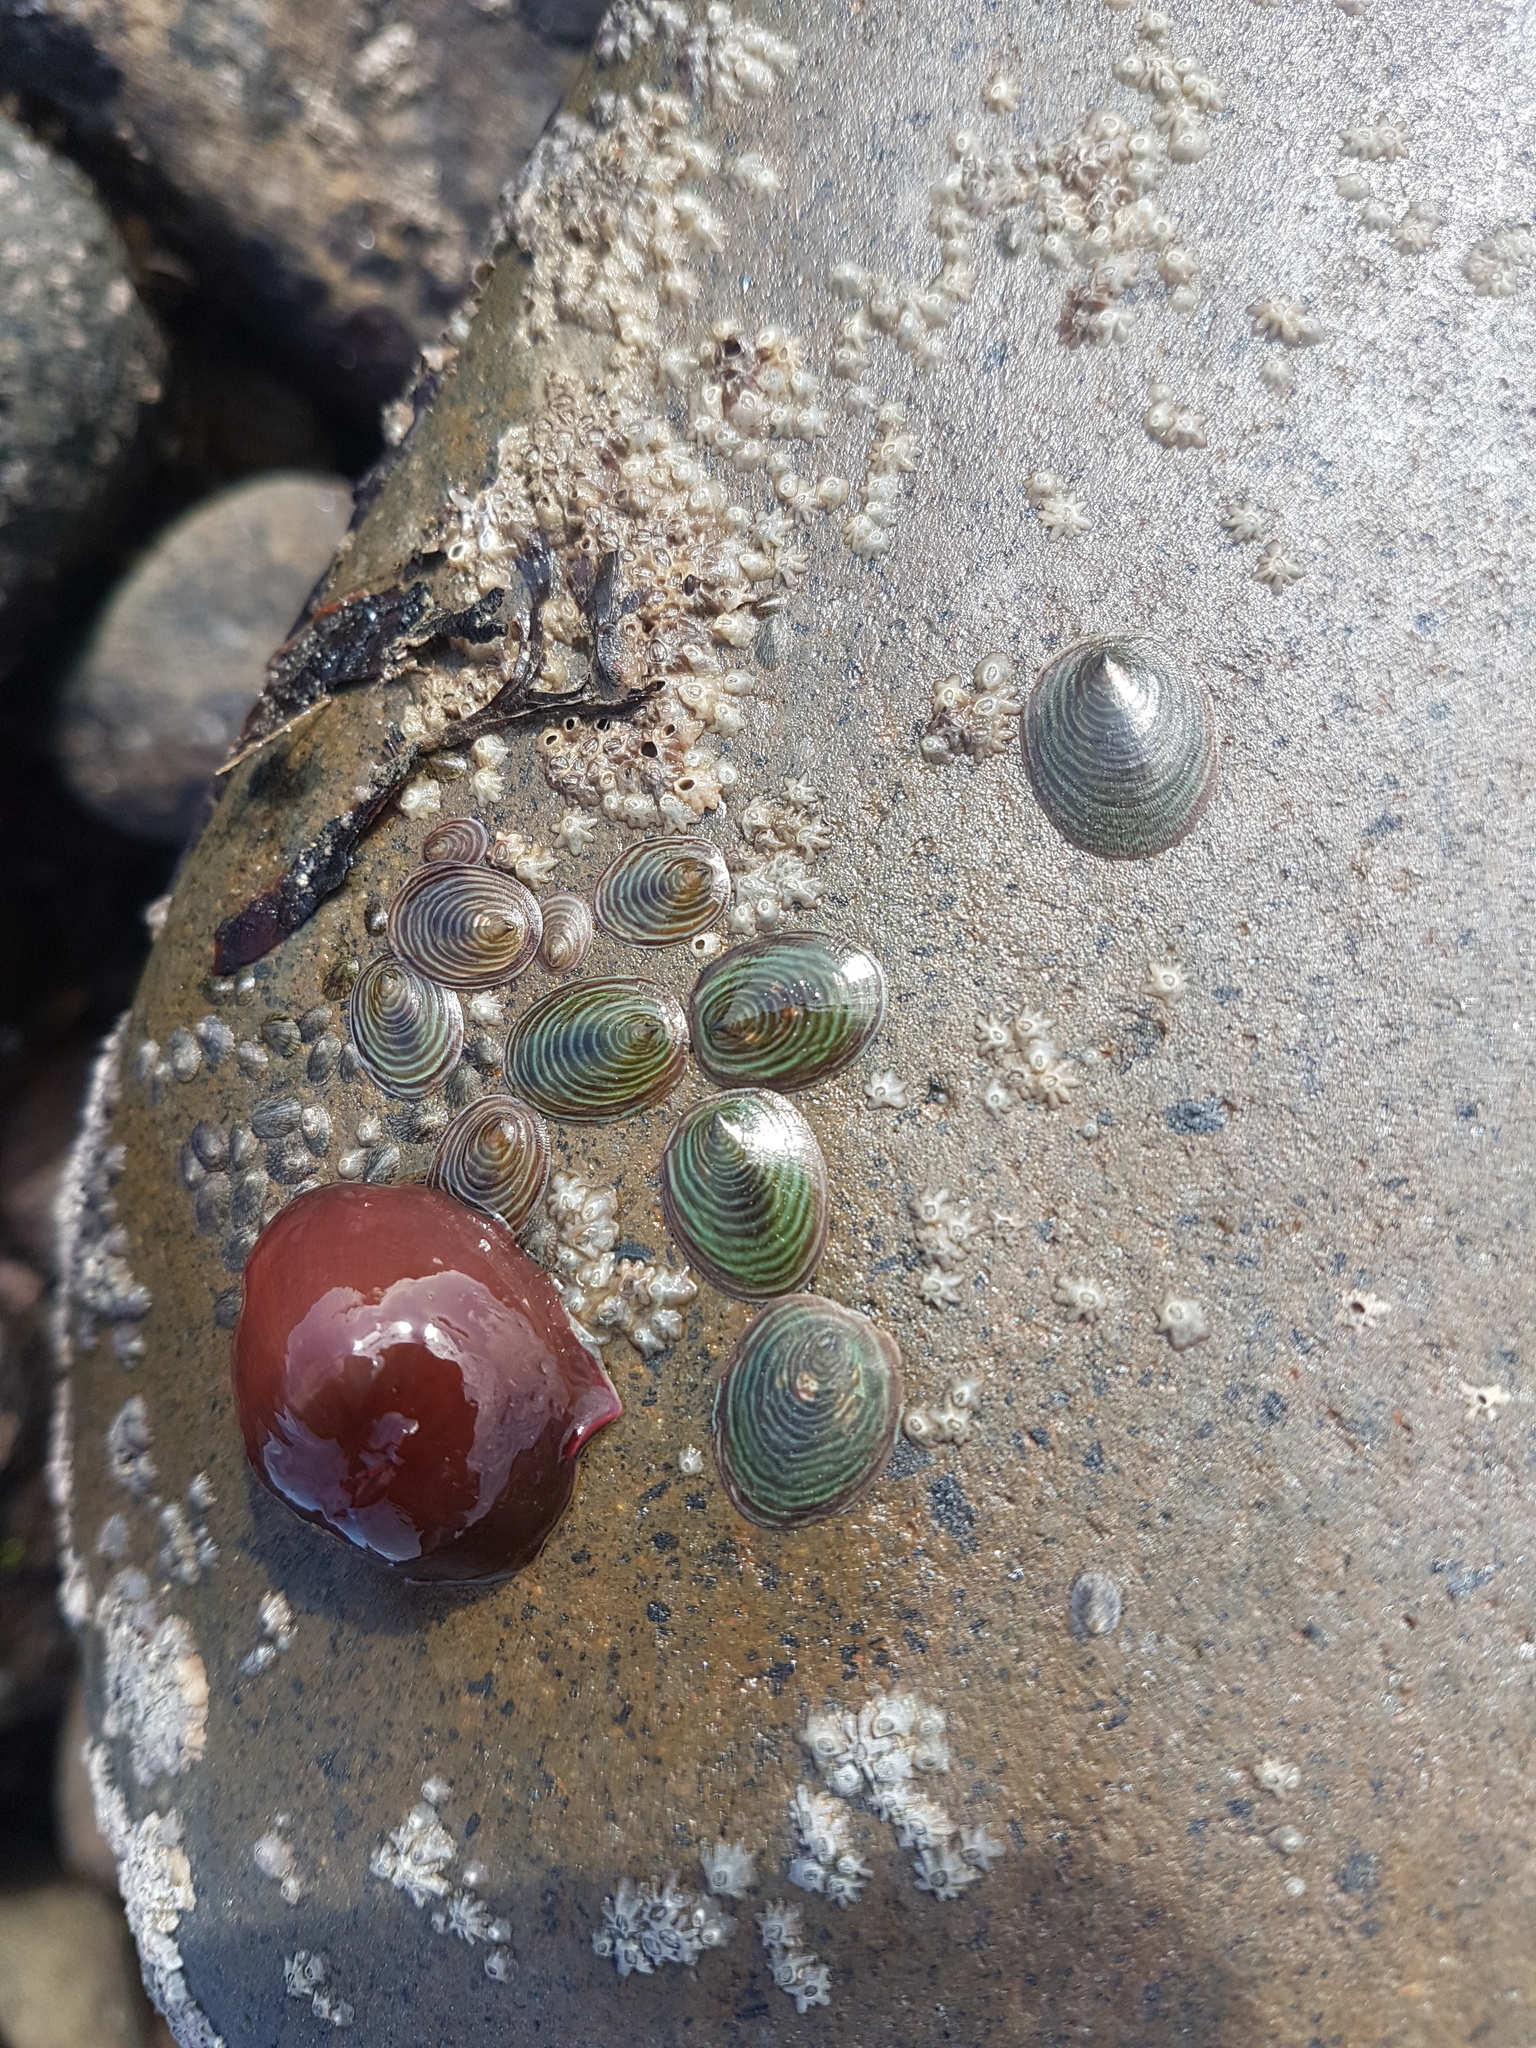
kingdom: Animalia
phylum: Mollusca
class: Gastropoda
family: Lottiidae
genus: Atalacmea
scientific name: Atalacmea fragilis
